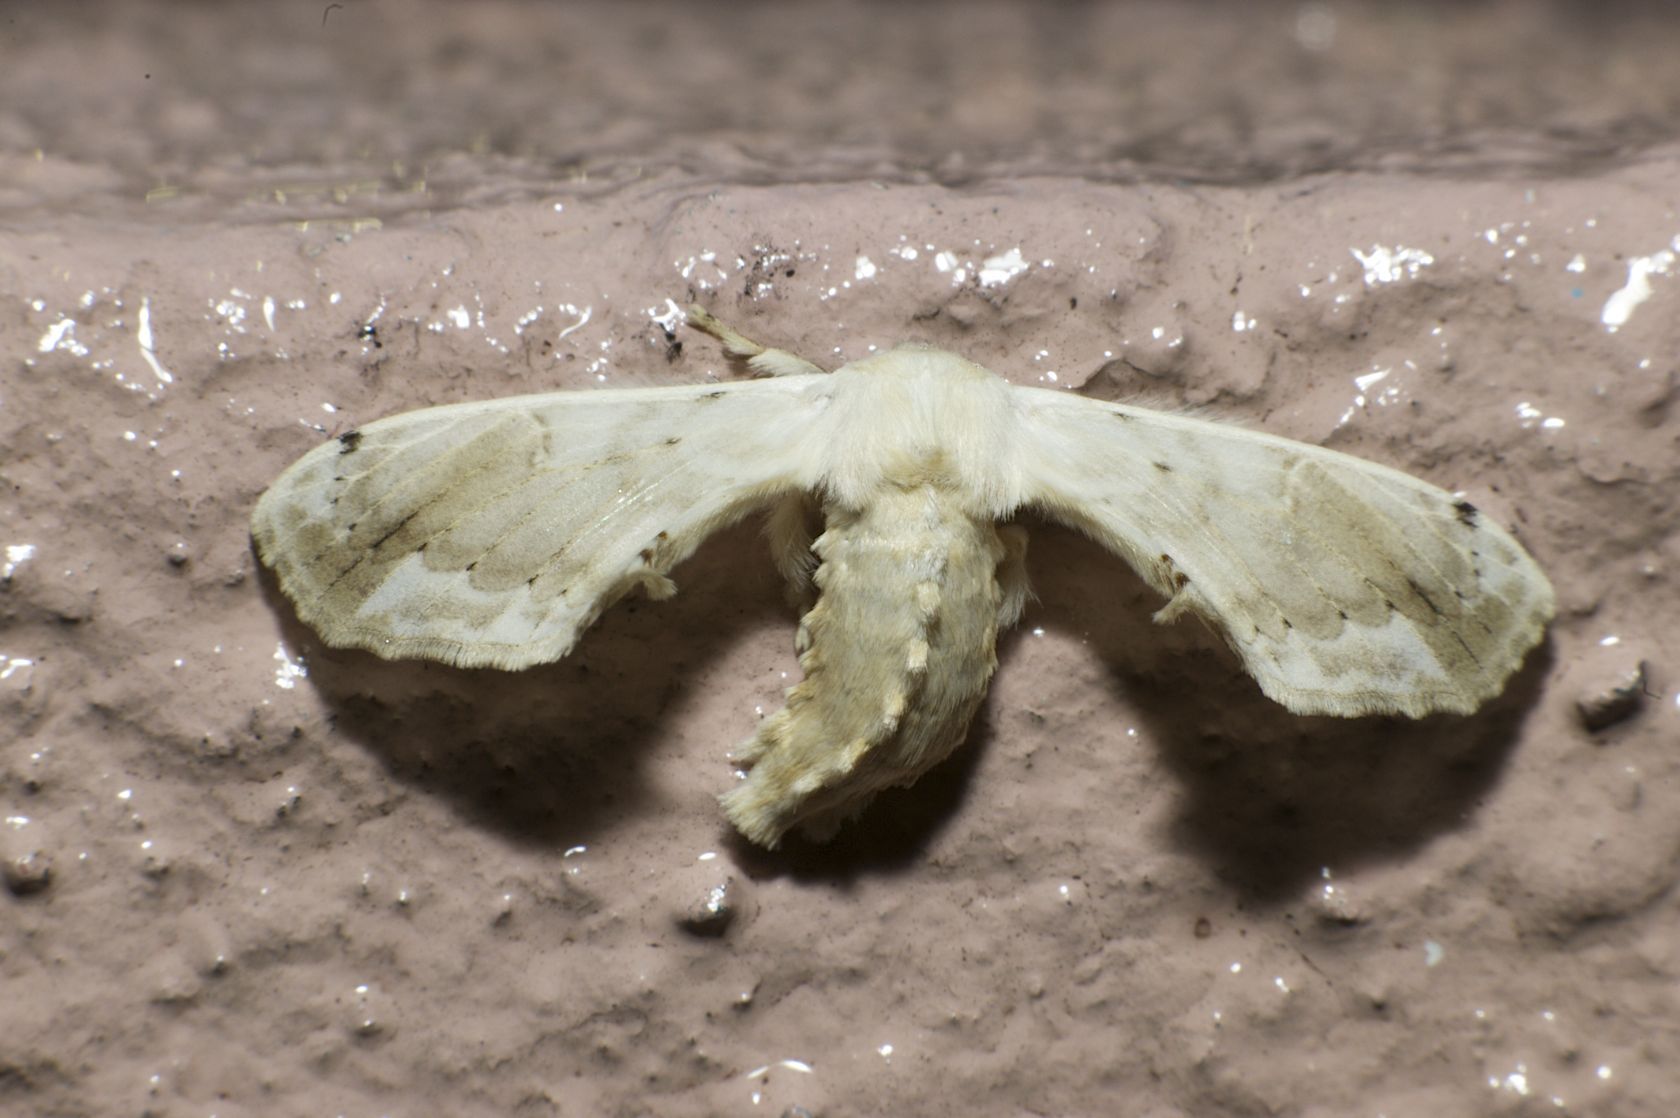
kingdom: Animalia
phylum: Arthropoda
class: Insecta
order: Lepidoptera
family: Bombycidae
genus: Ernolatia
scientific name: Ernolatia moorei
